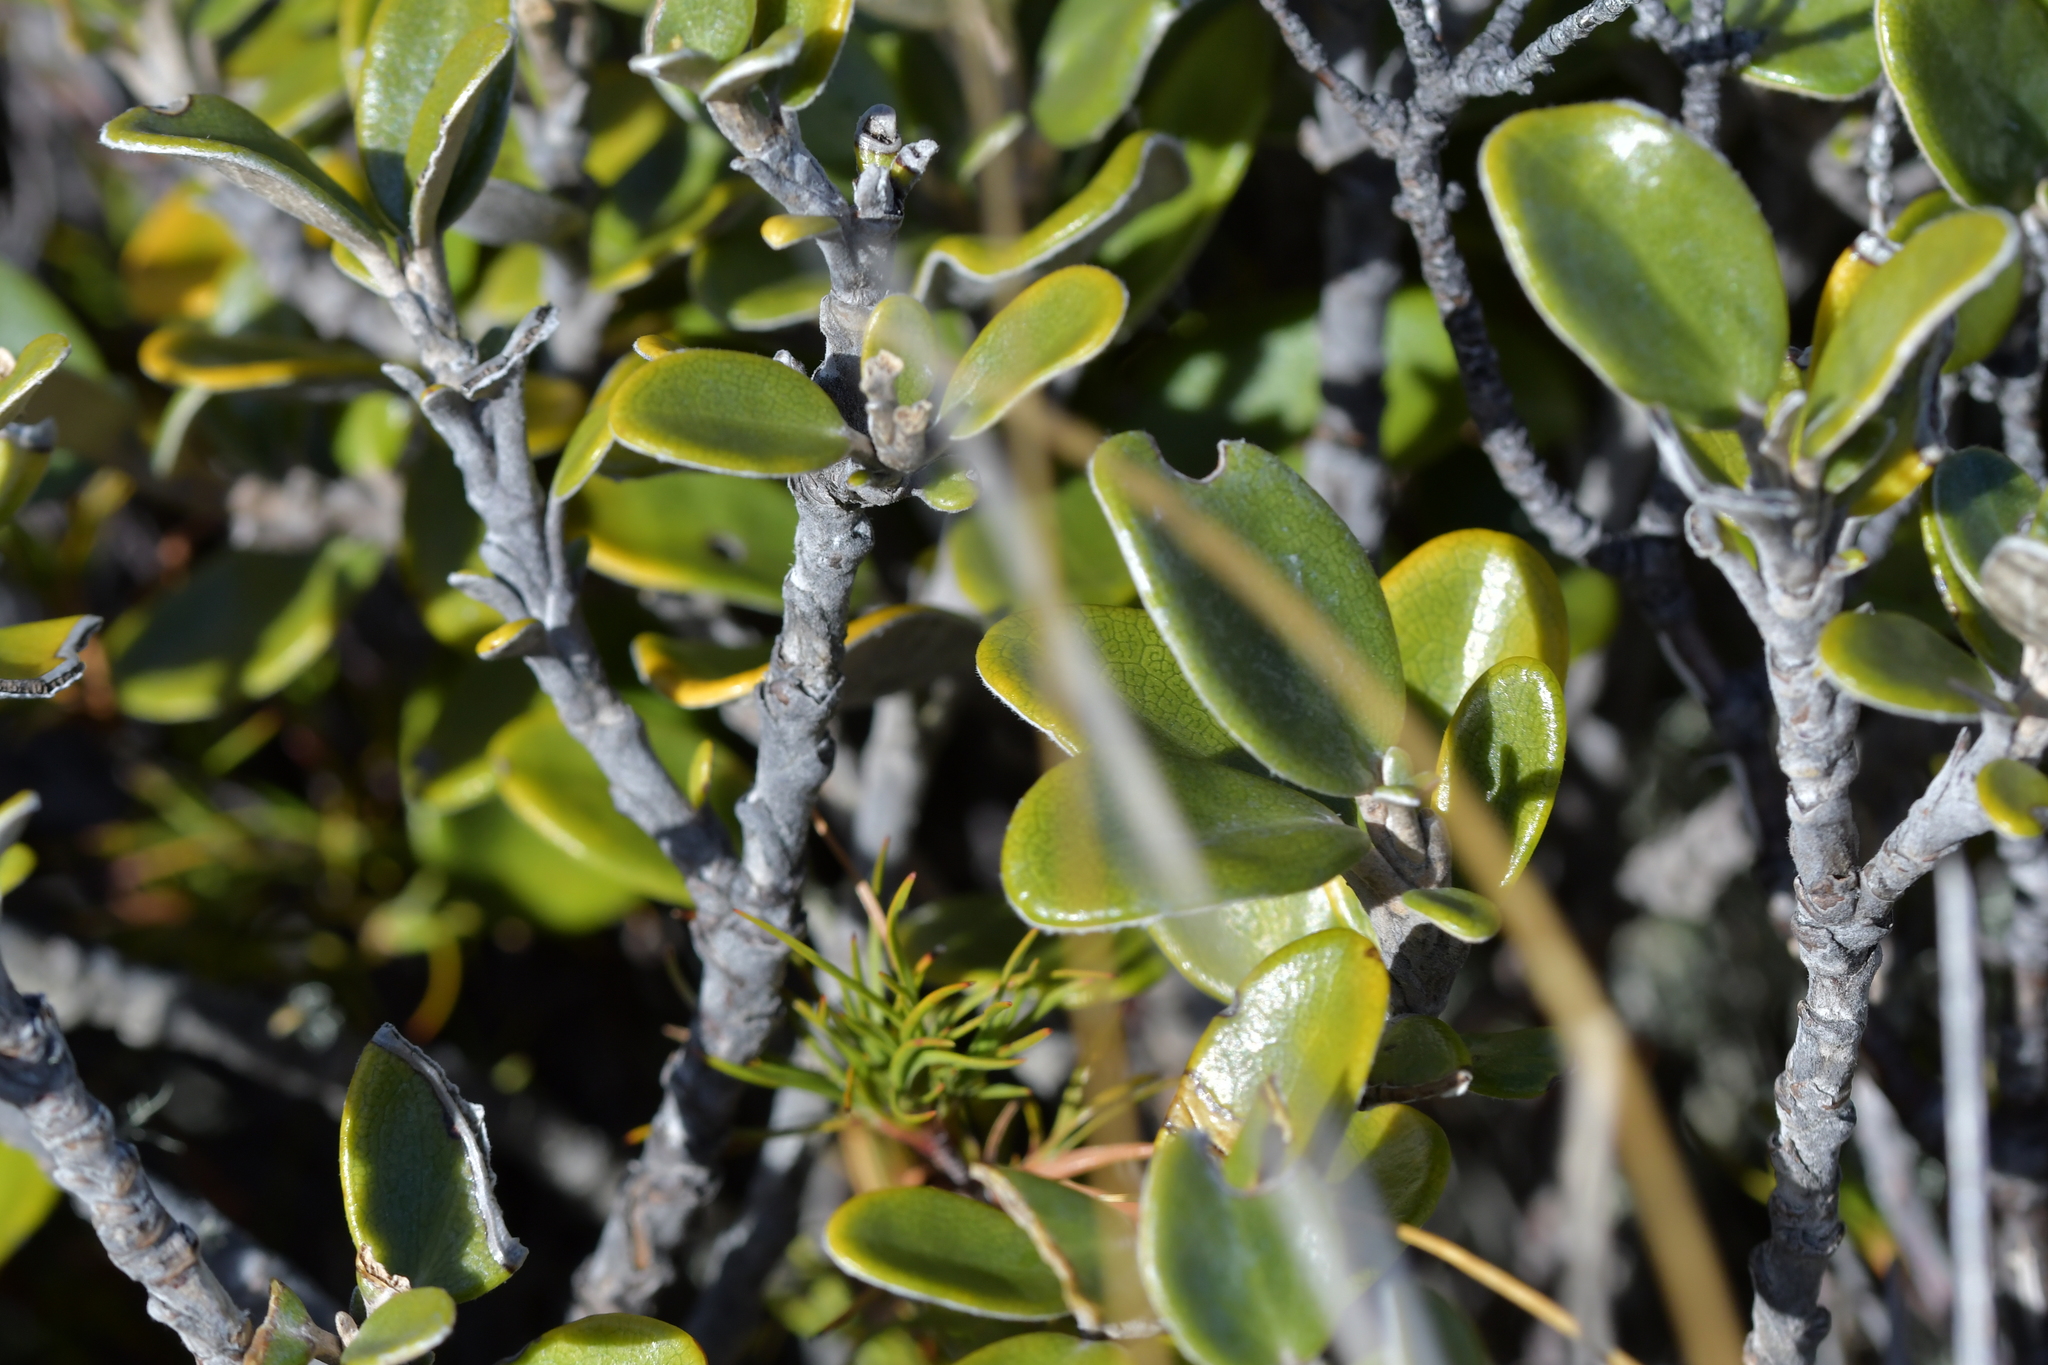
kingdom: Plantae
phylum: Tracheophyta
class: Magnoliopsida
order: Asterales
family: Asteraceae
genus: Brachyglottis
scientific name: Brachyglottis bidwillii
